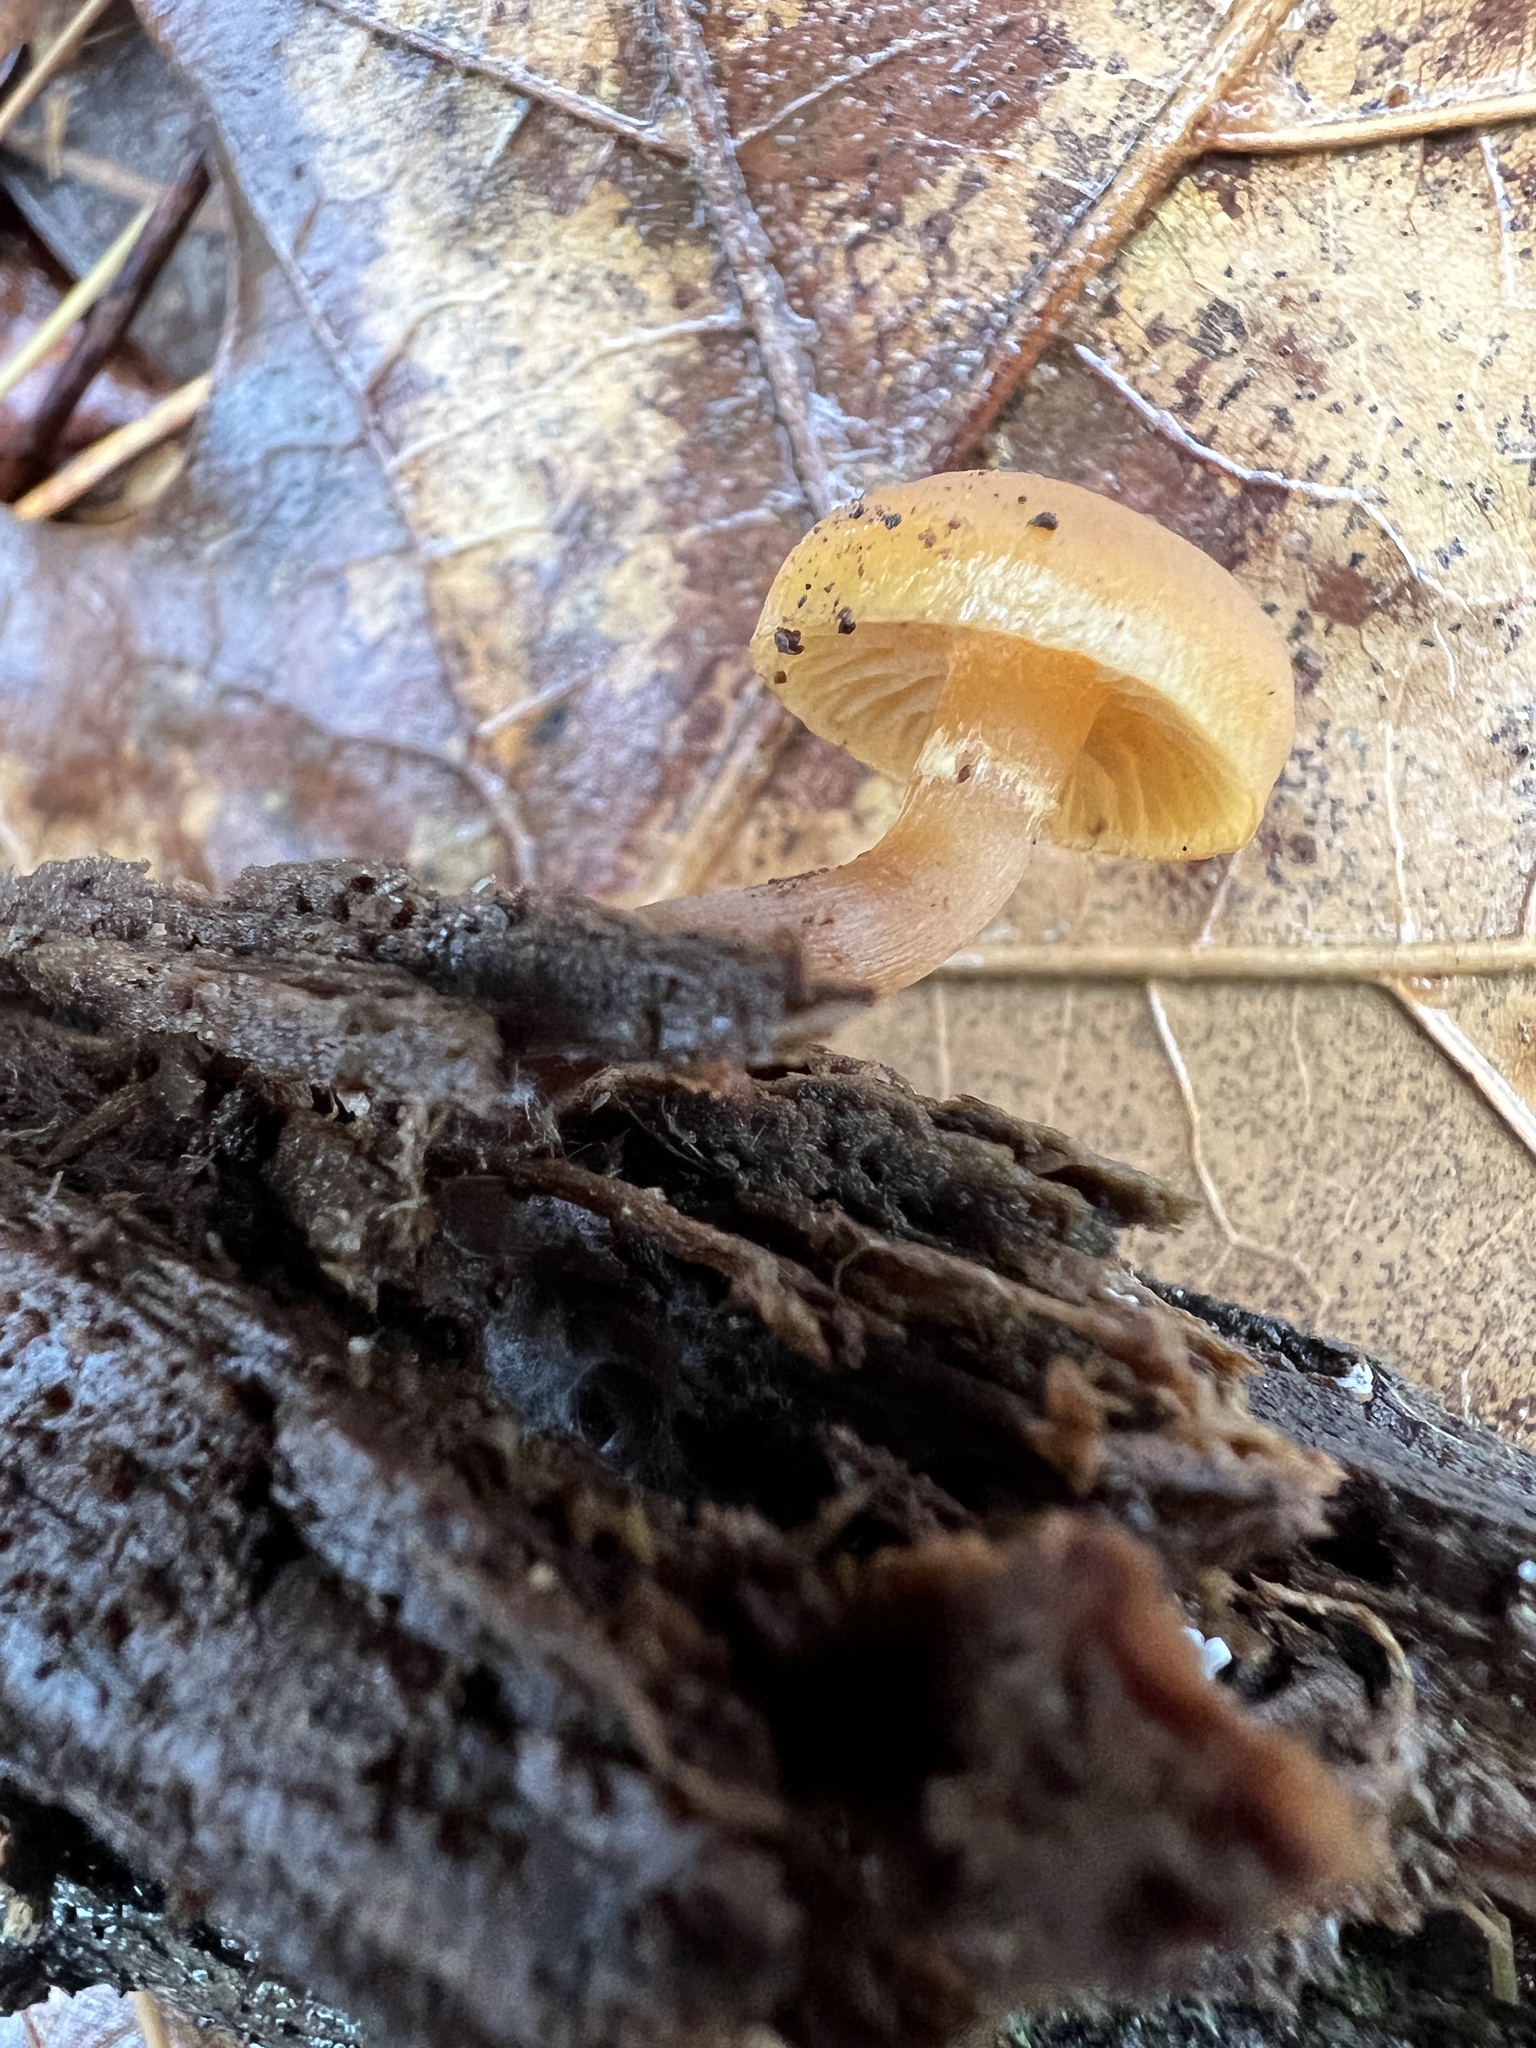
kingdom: Fungi
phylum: Basidiomycota
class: Agaricomycetes
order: Agaricales
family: Hymenogastraceae
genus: Galerina
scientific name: Galerina marginata
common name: Funeral bell
